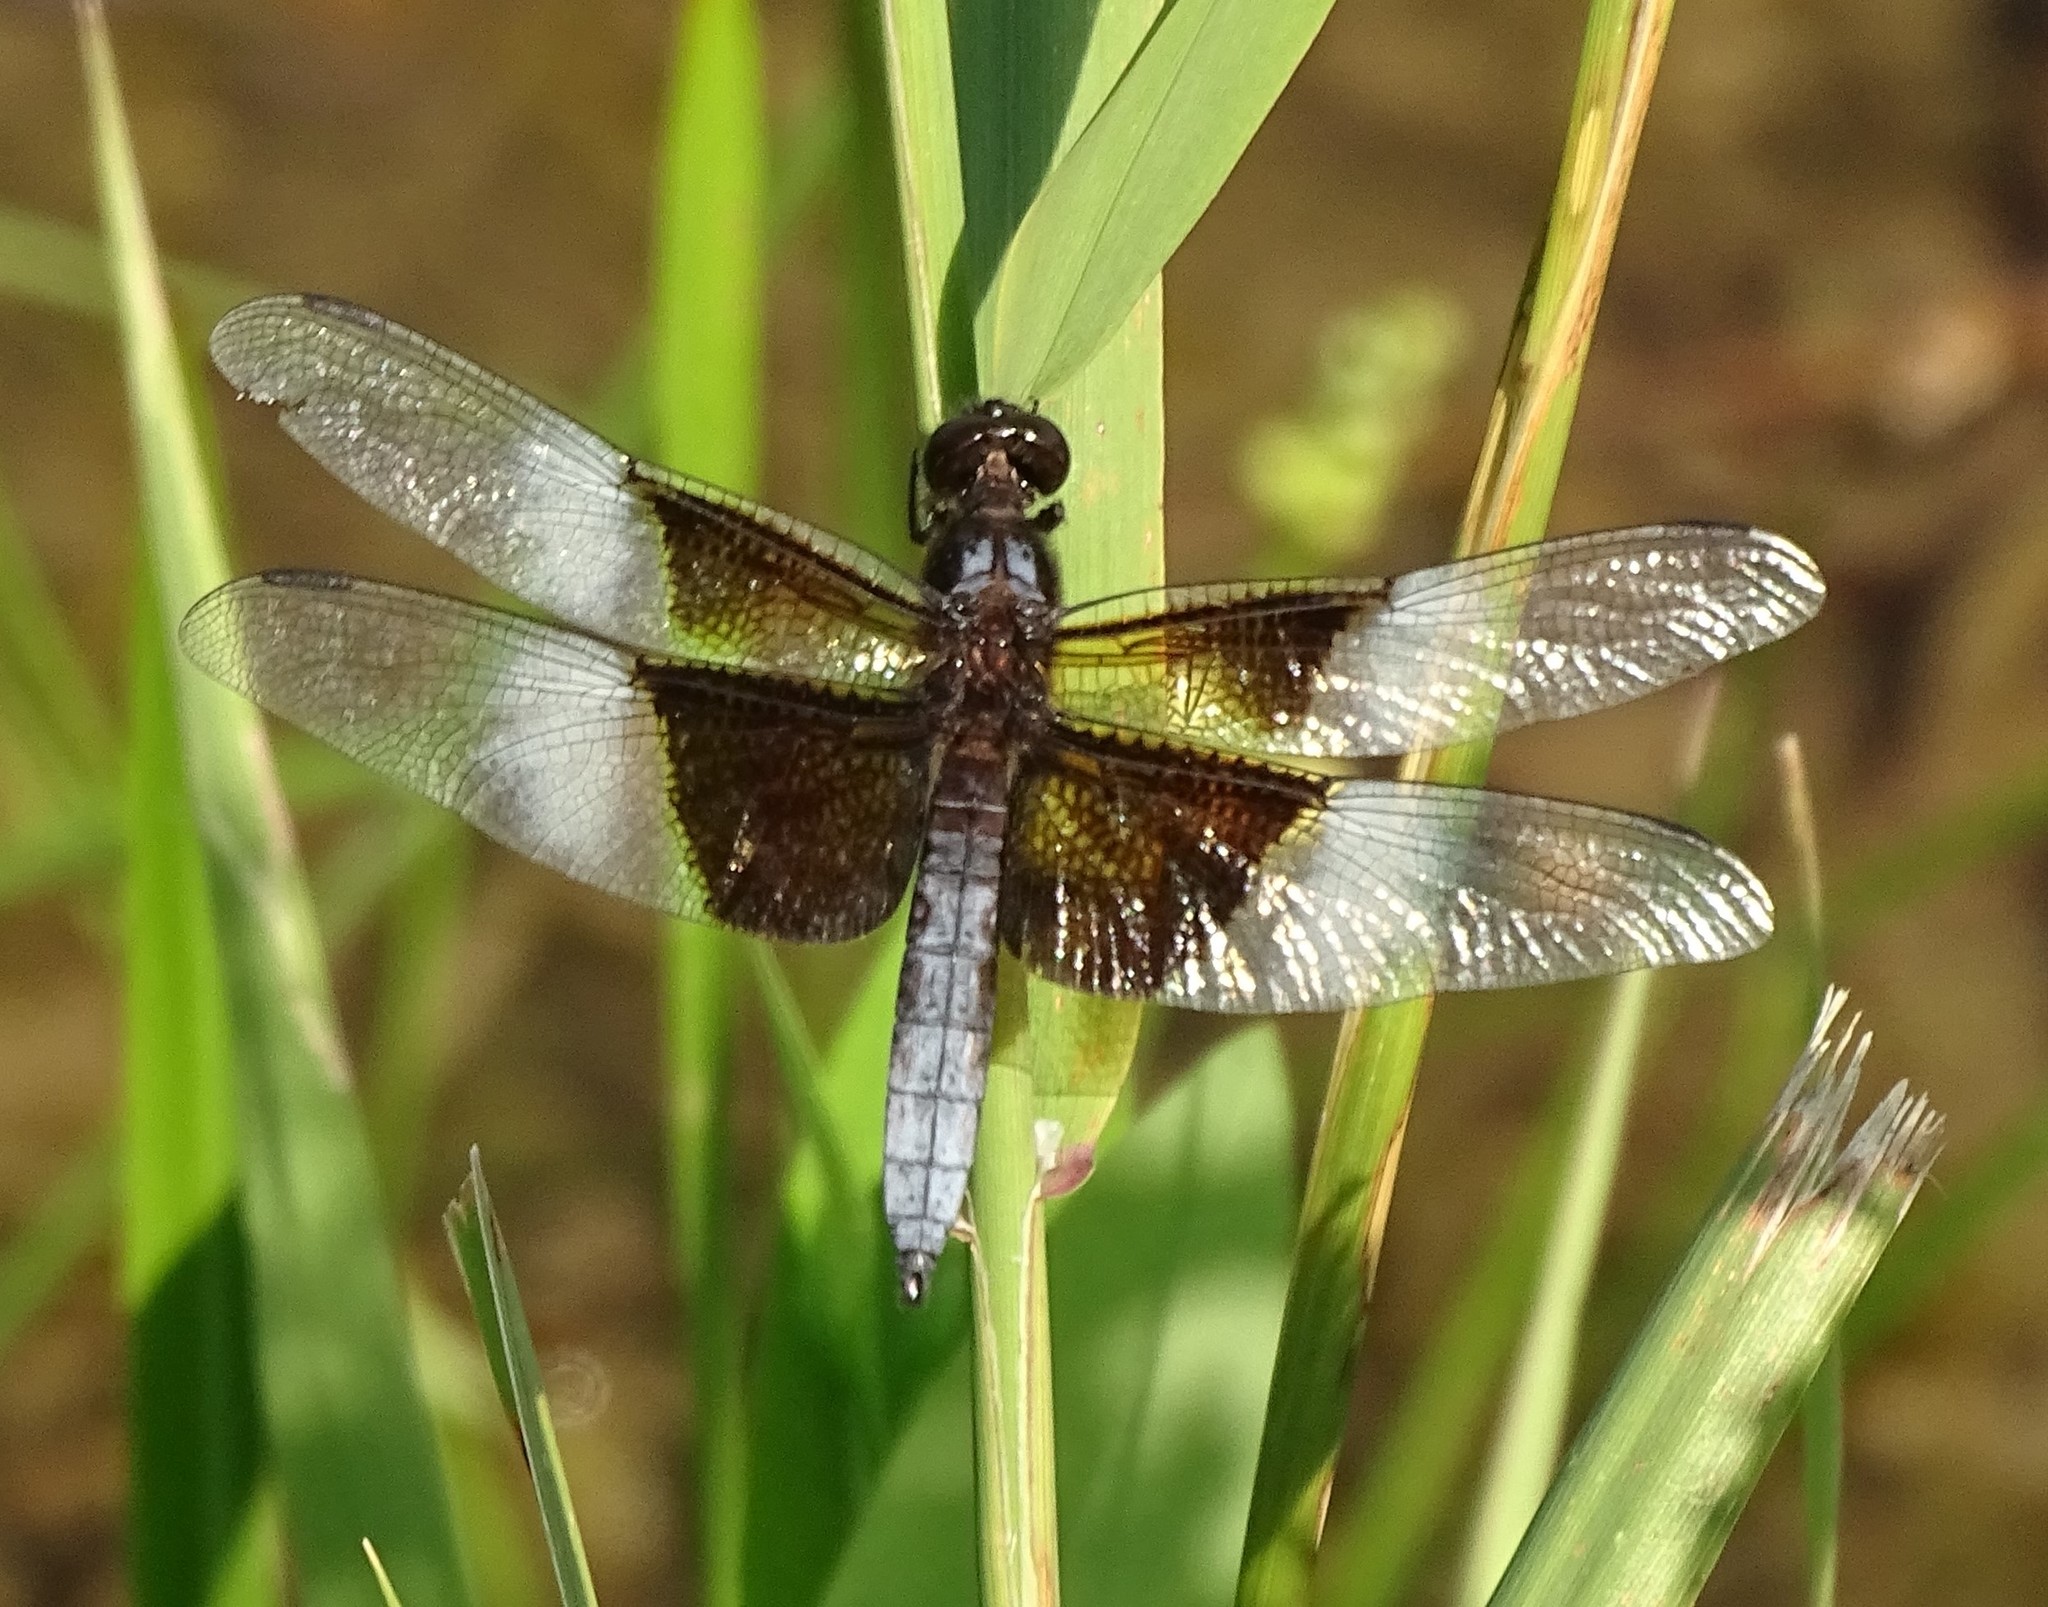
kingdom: Animalia
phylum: Arthropoda
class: Insecta
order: Odonata
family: Libellulidae
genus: Libellula
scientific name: Libellula luctuosa
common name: Widow skimmer
